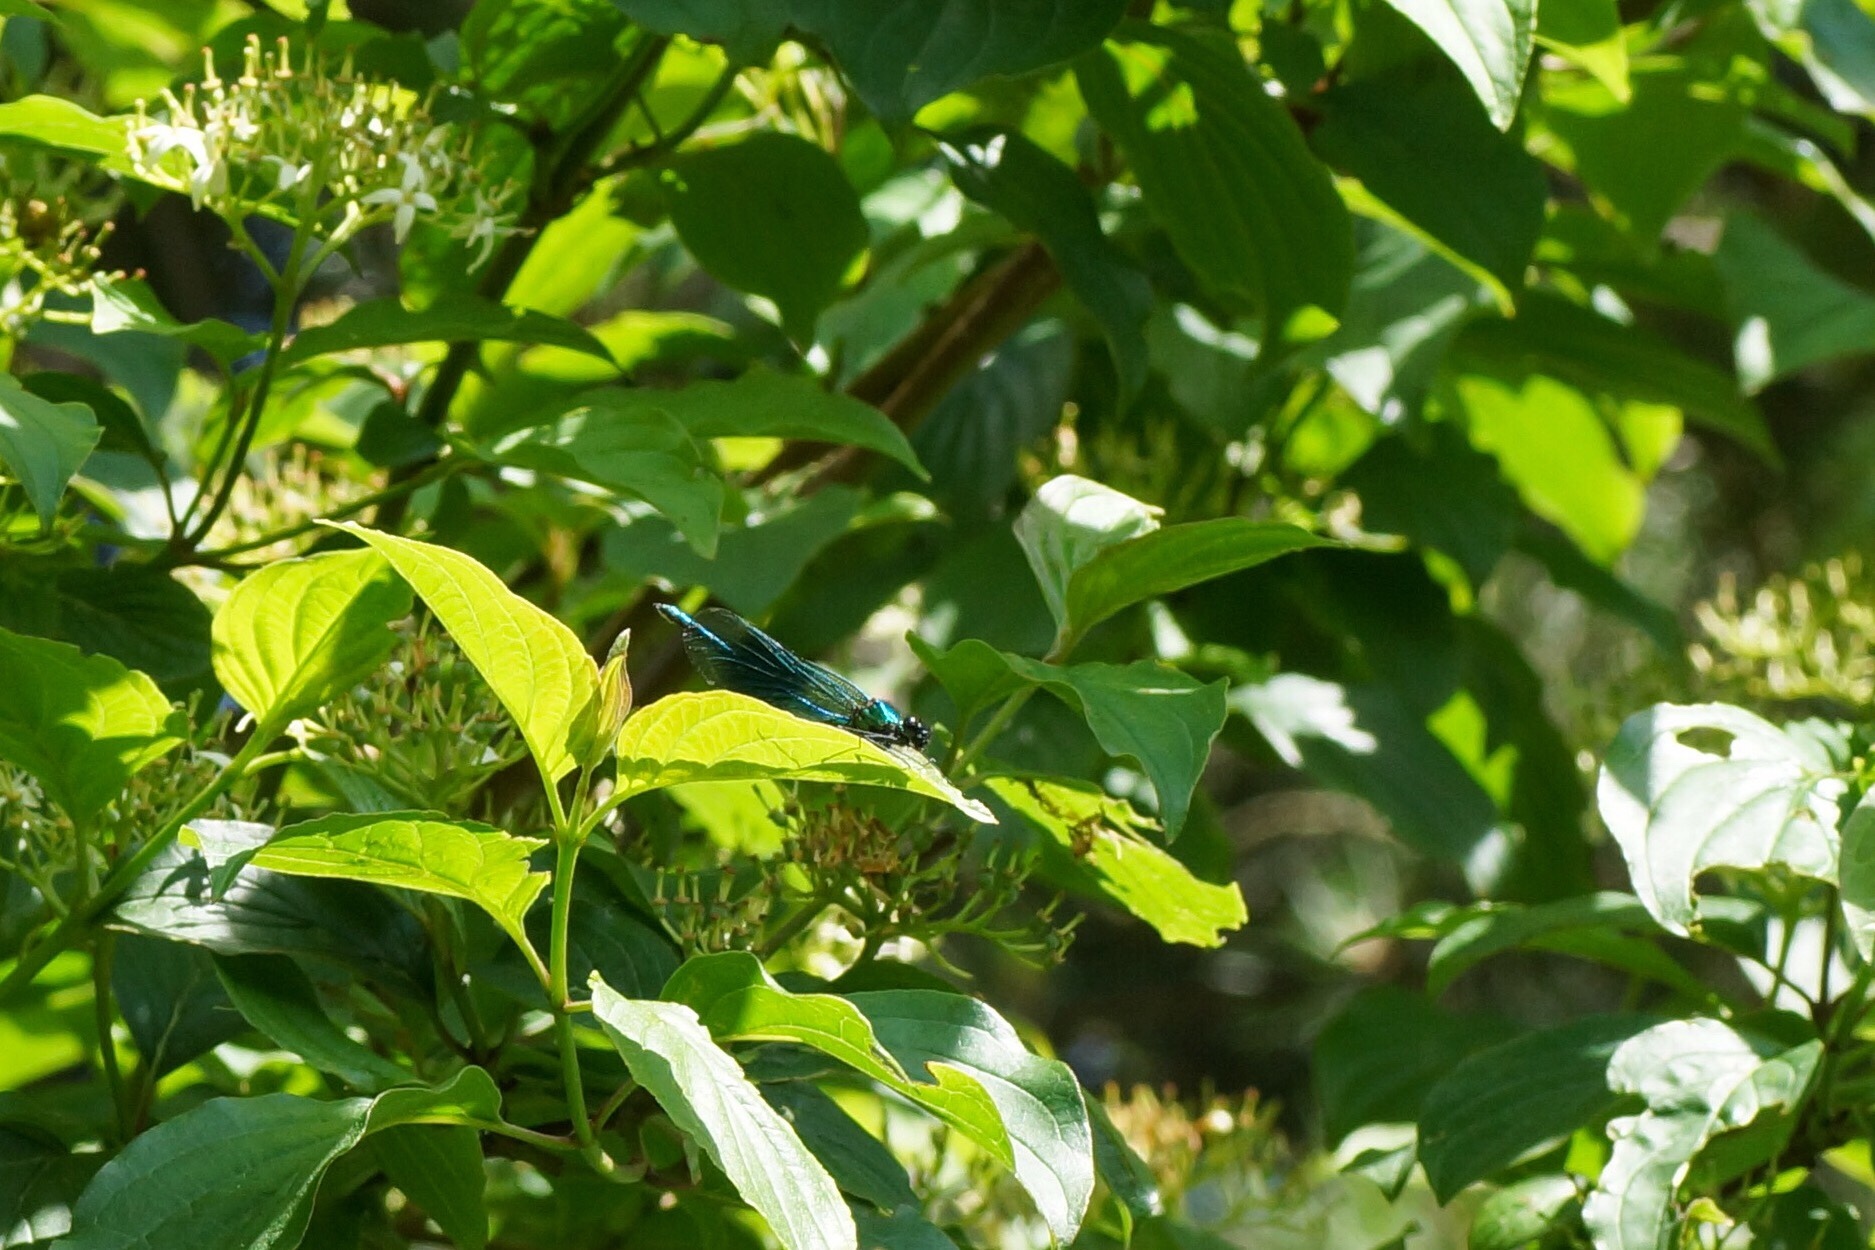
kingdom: Animalia
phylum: Arthropoda
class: Insecta
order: Odonata
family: Calopterygidae
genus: Calopteryx
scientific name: Calopteryx splendens
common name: Banded demoiselle
